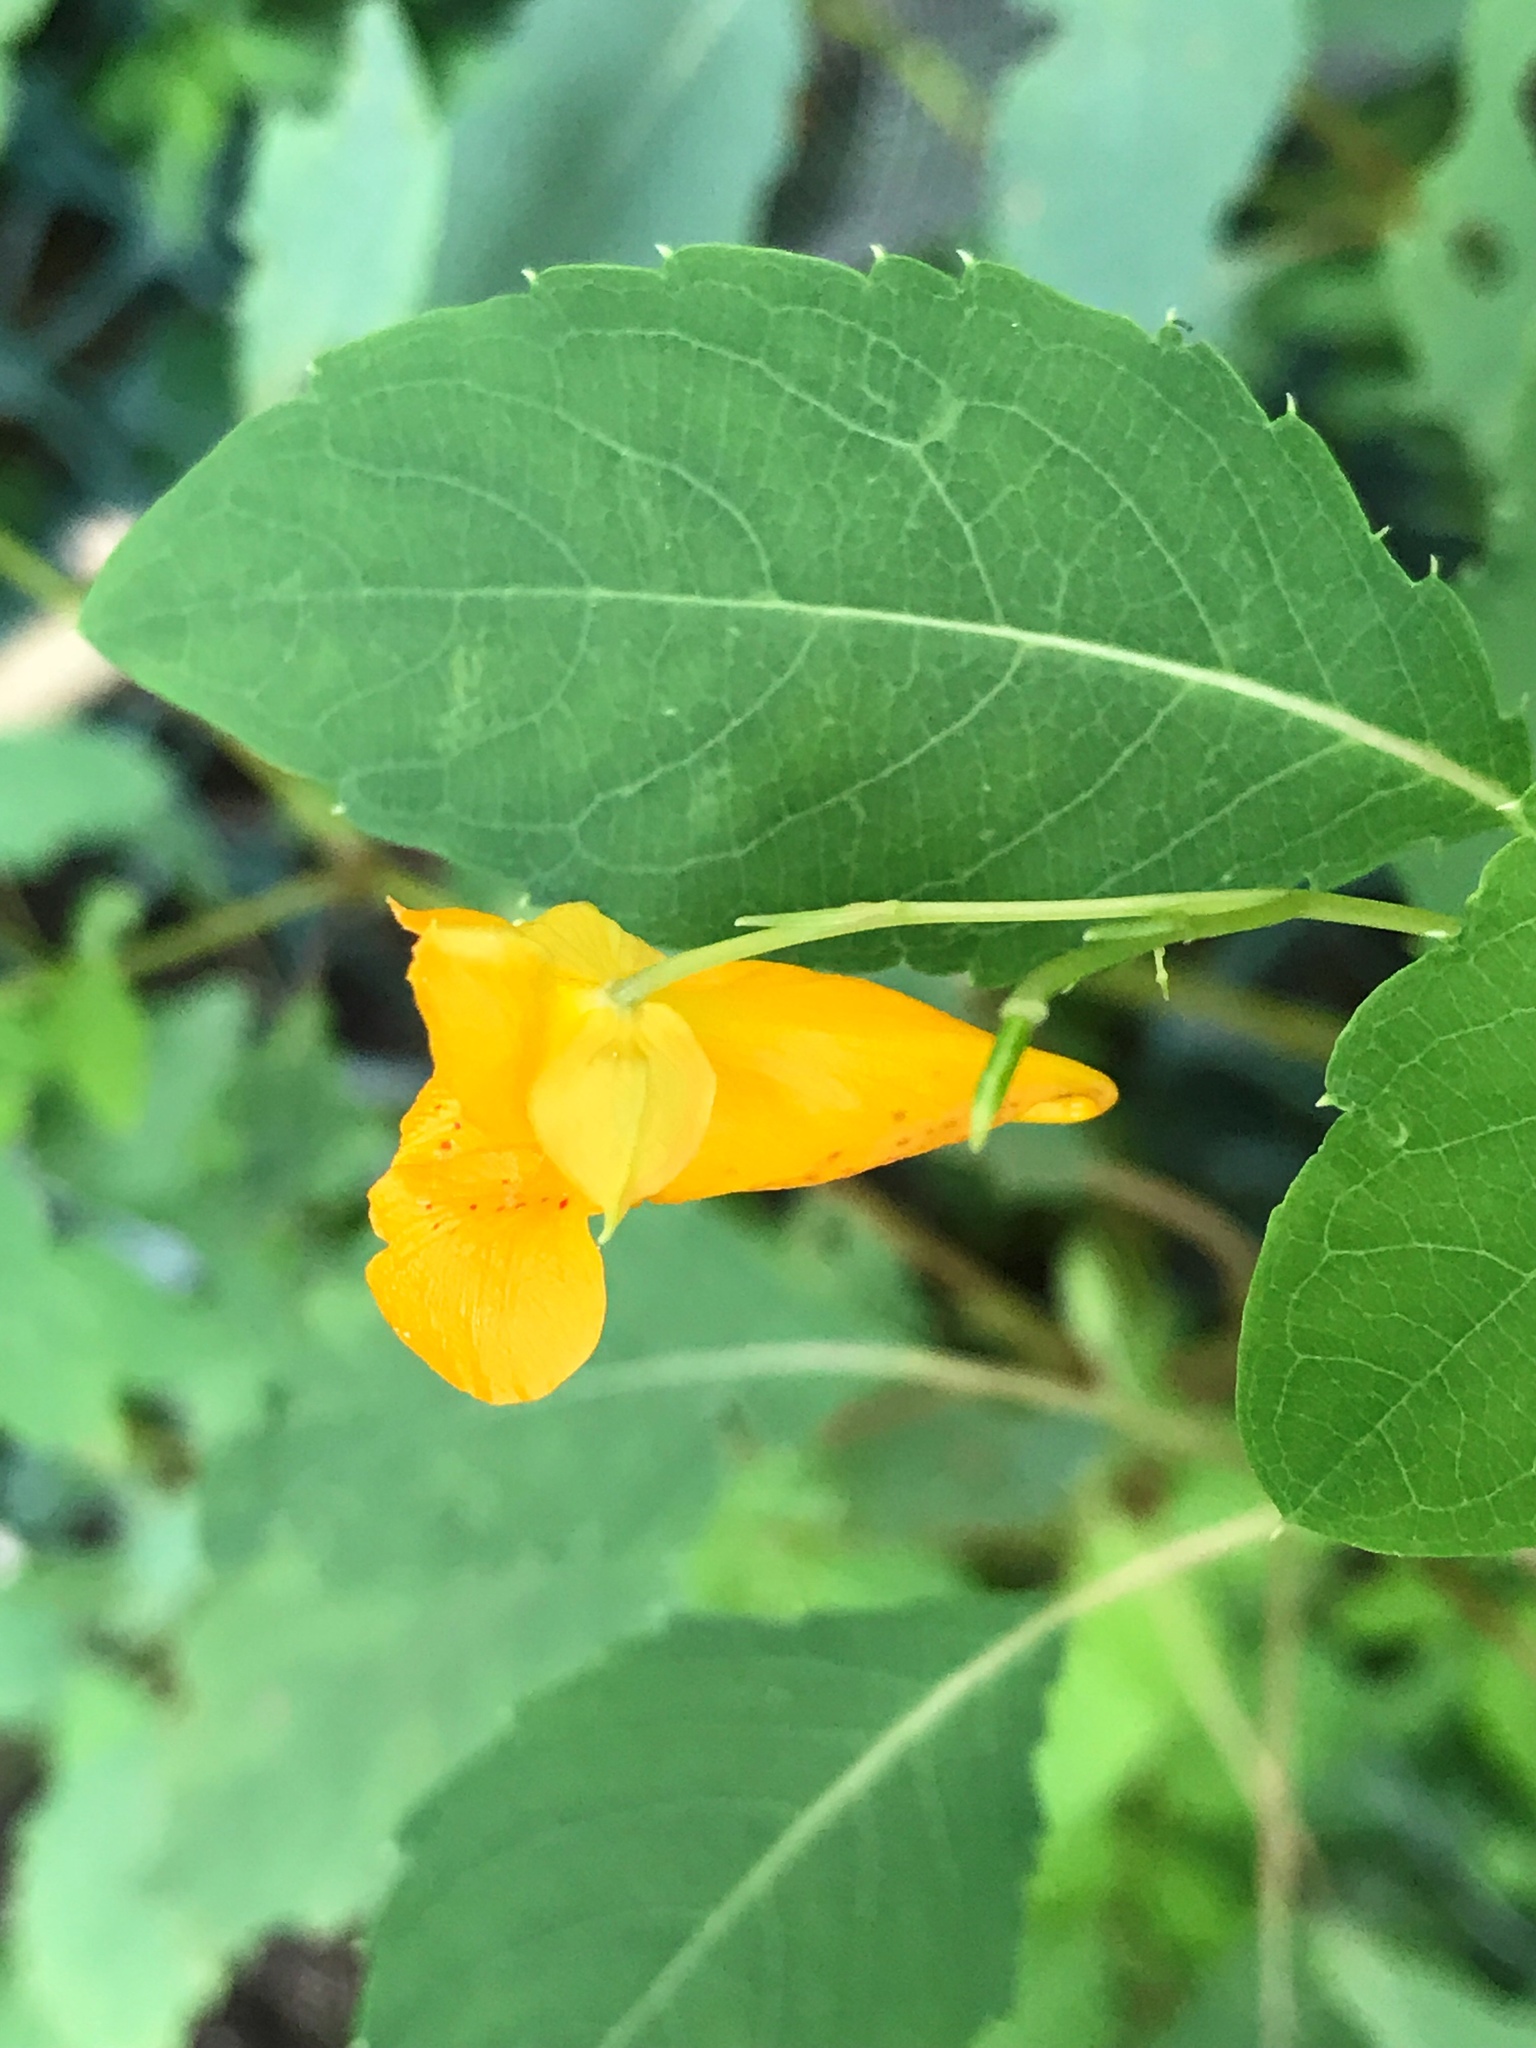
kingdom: Plantae
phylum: Tracheophyta
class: Magnoliopsida
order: Ericales
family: Balsaminaceae
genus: Impatiens
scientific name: Impatiens capensis
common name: Orange balsam
